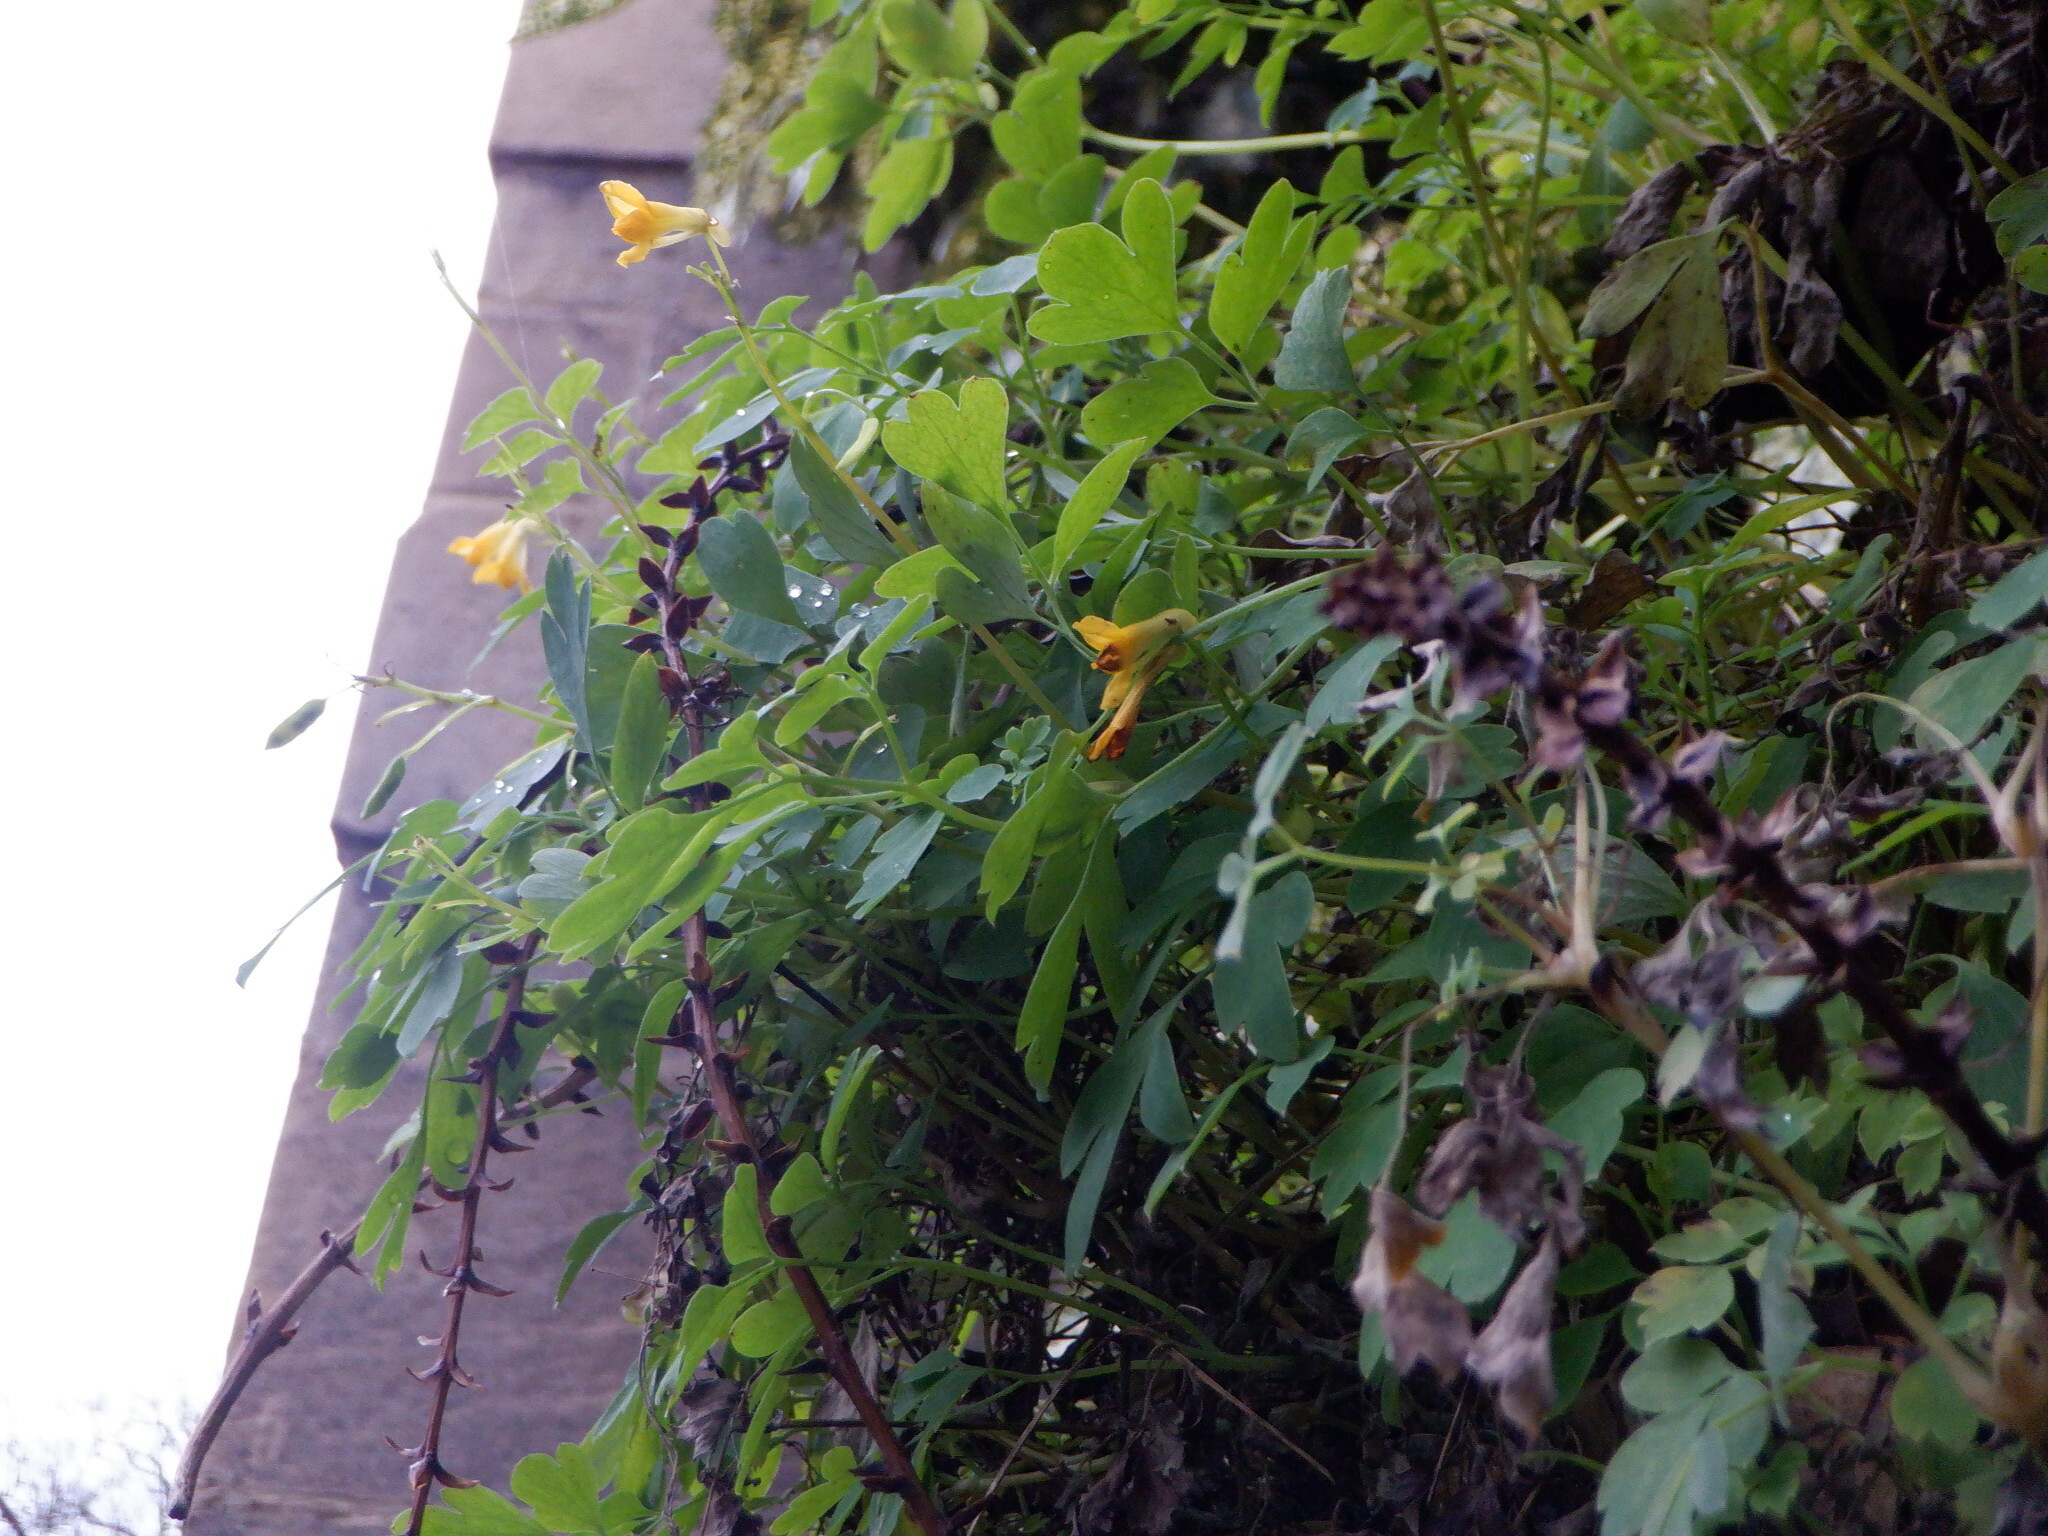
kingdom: Plantae
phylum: Tracheophyta
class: Magnoliopsida
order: Ranunculales
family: Papaveraceae
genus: Pseudofumaria
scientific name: Pseudofumaria lutea
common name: Yellow corydalis
